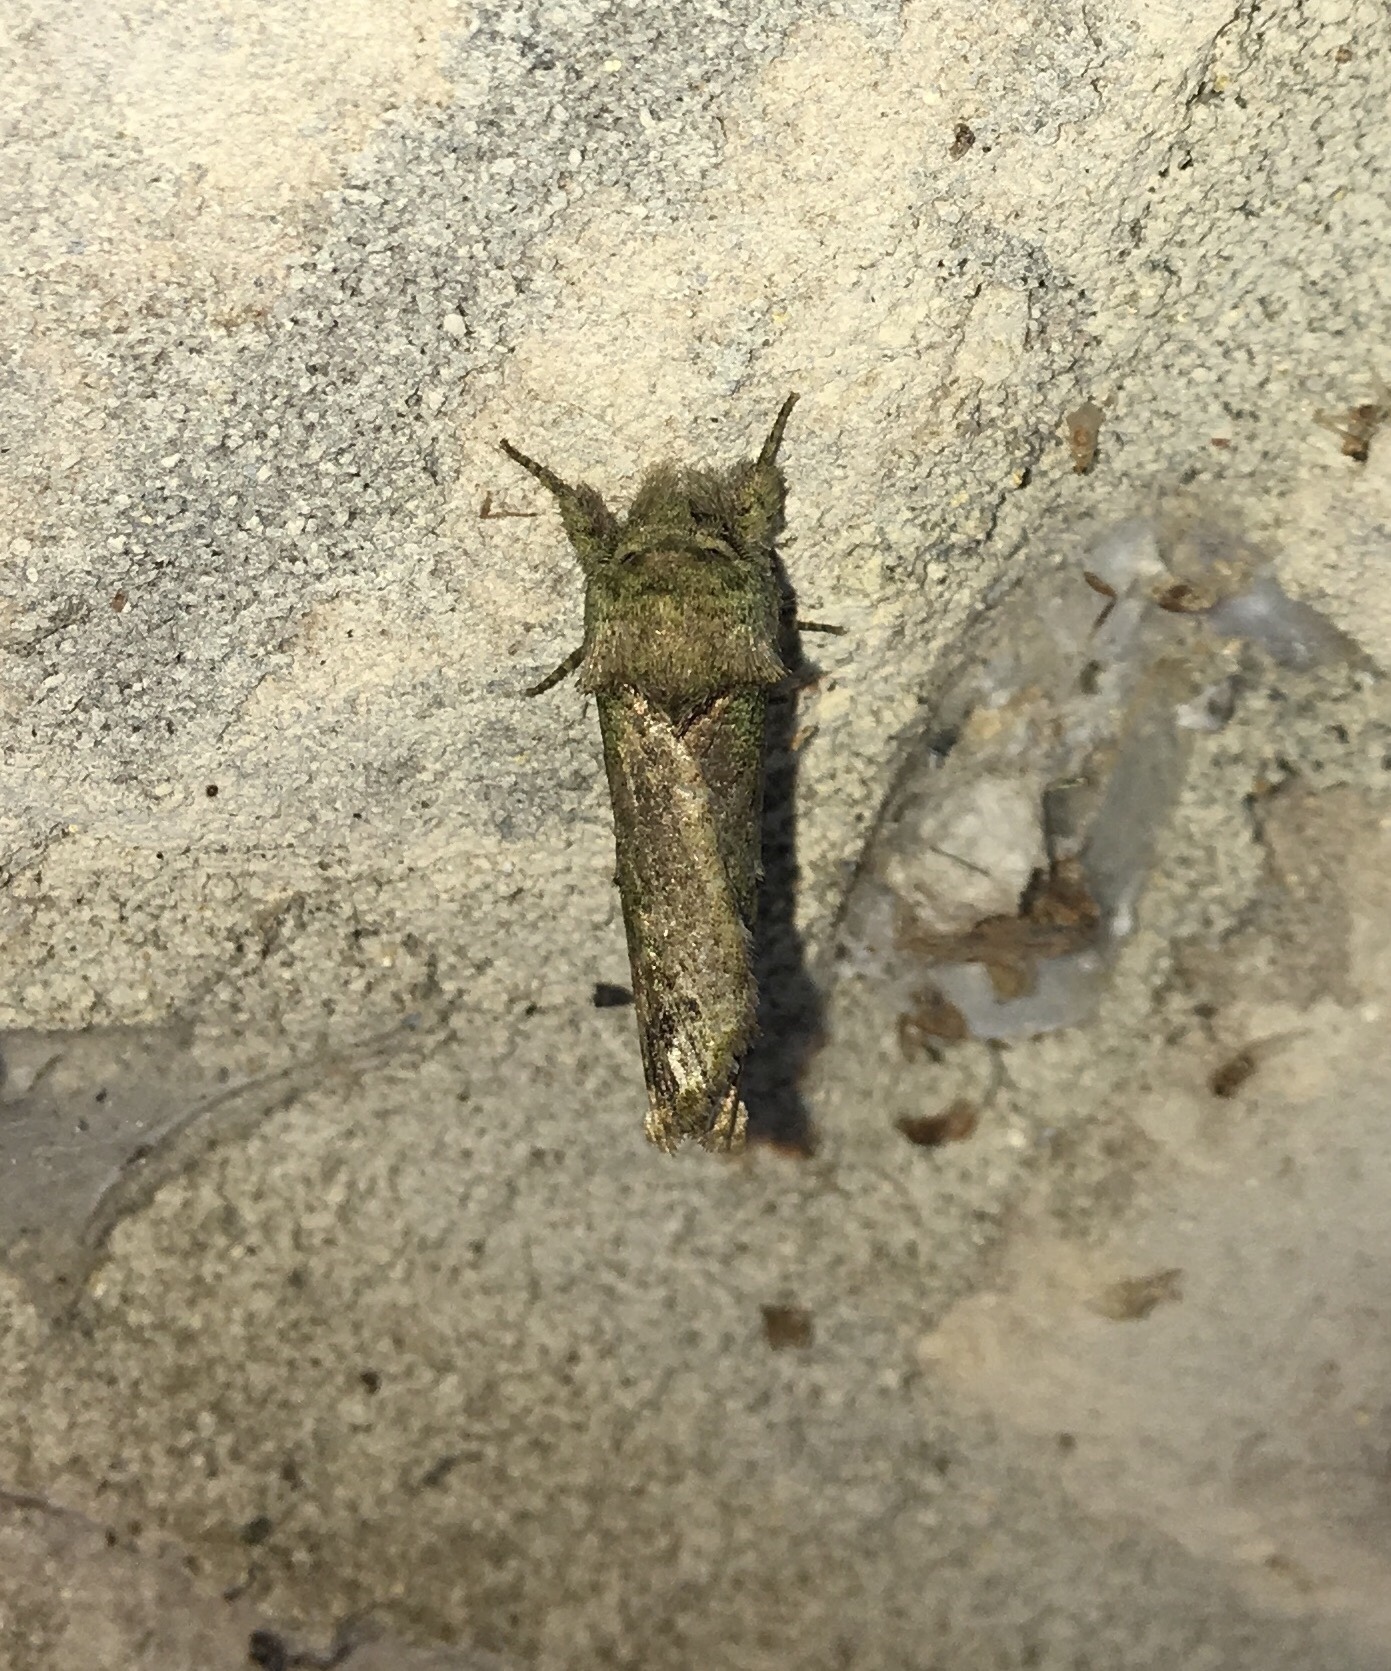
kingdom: Animalia
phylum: Arthropoda
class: Insecta
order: Lepidoptera
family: Notodontidae
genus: Schizura
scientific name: Schizura
